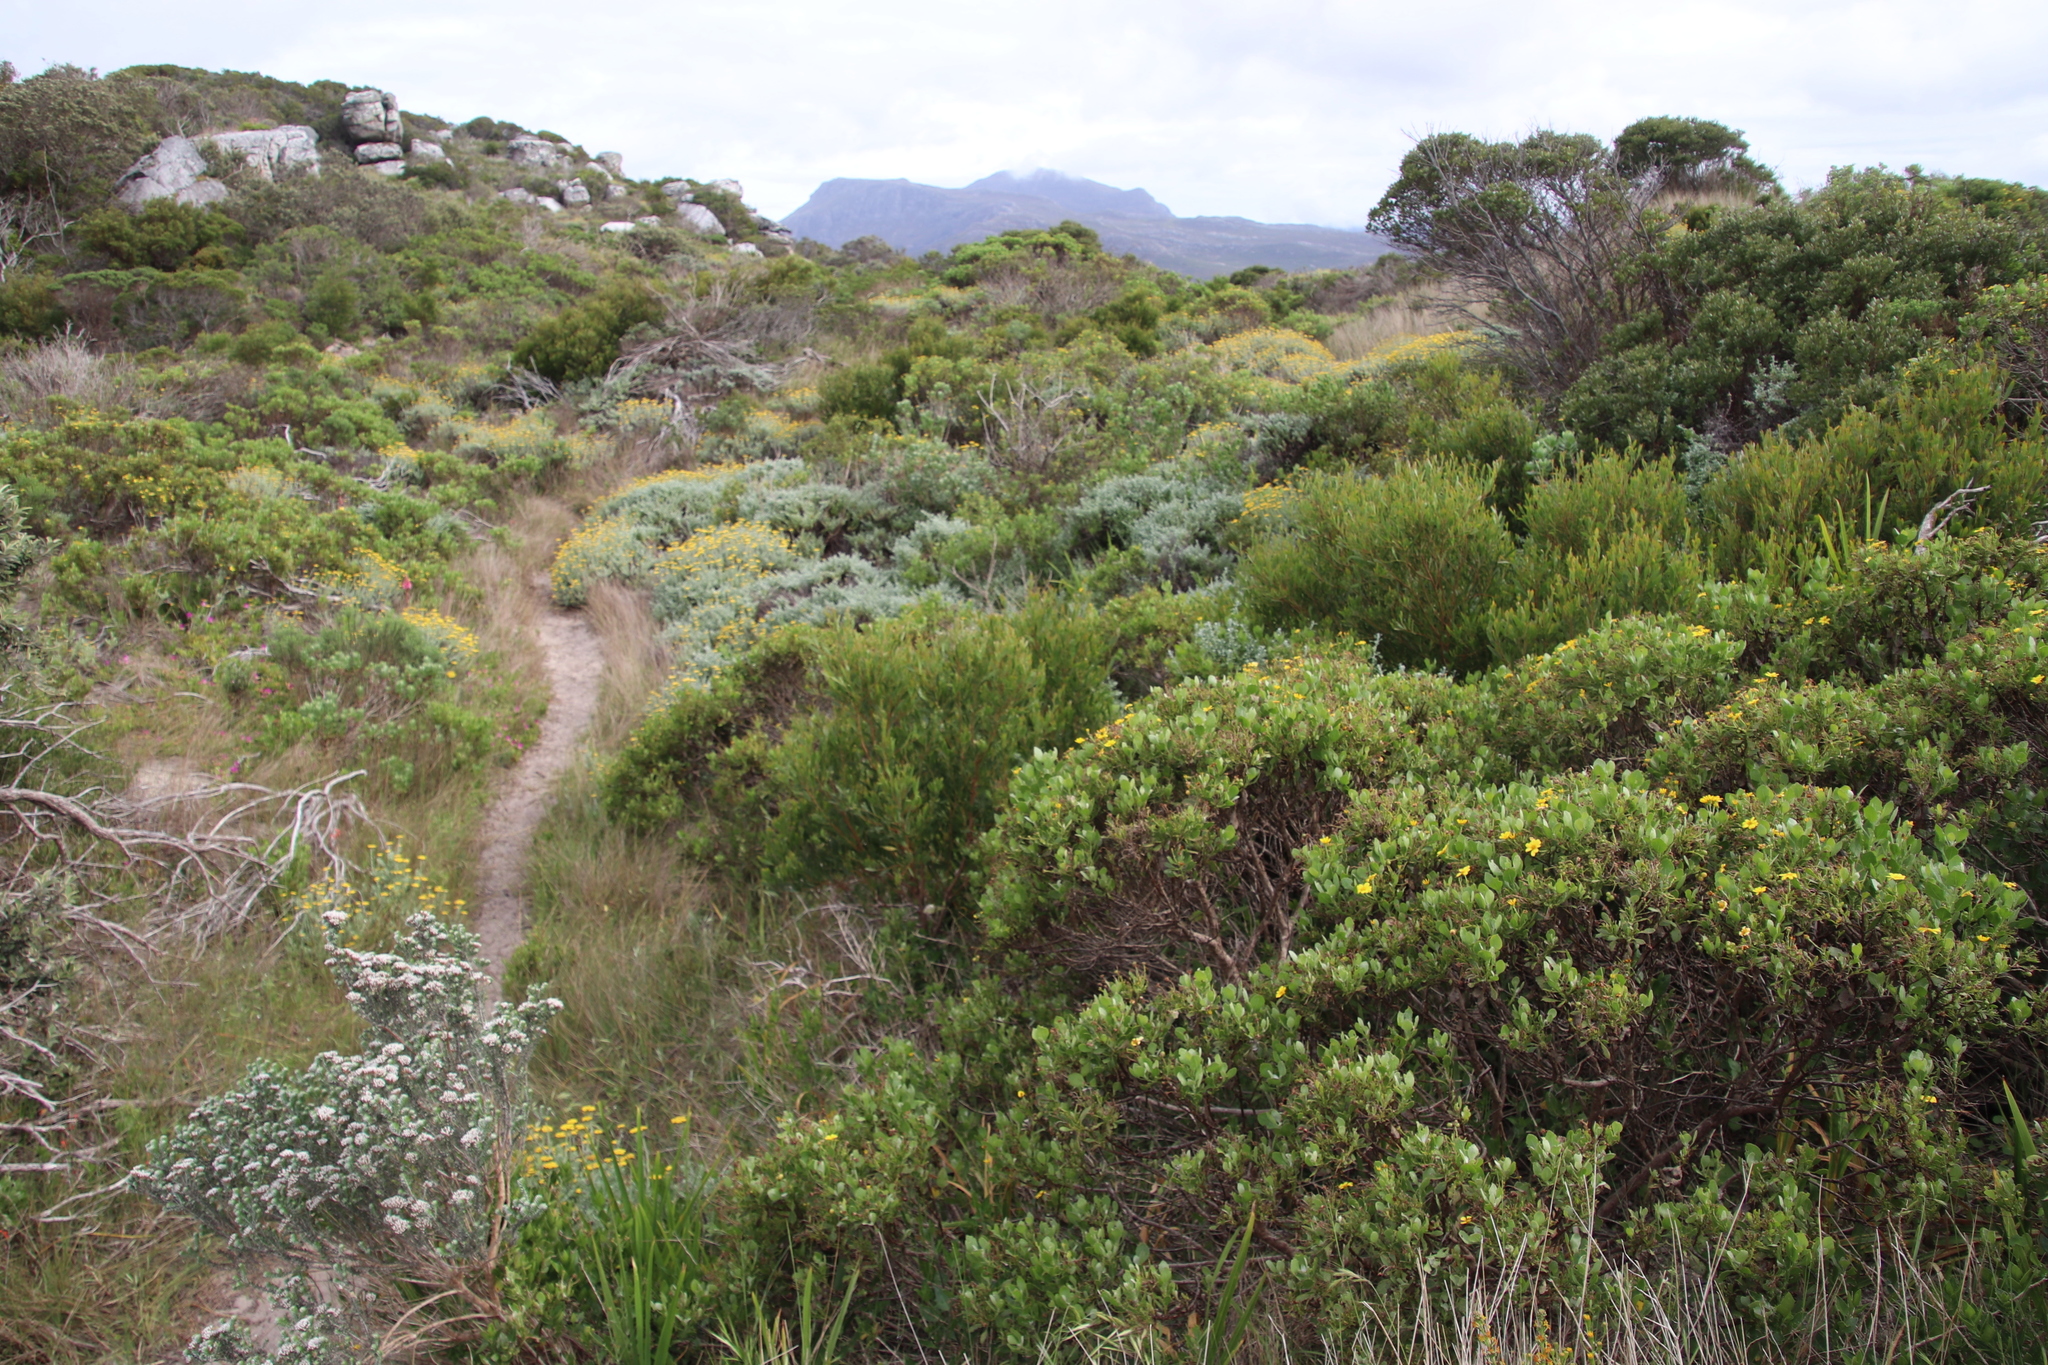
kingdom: Plantae
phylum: Tracheophyta
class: Magnoliopsida
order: Fabales
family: Fabaceae
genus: Acacia
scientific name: Acacia cyclops
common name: Coastal wattle
